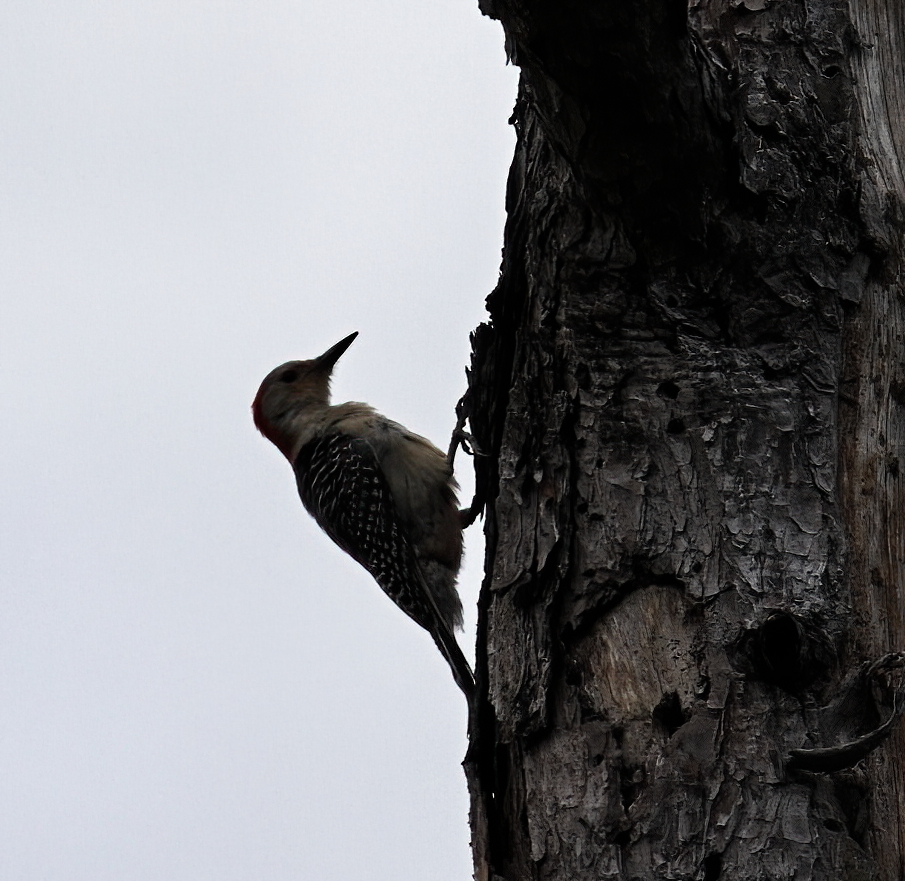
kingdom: Animalia
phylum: Chordata
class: Aves
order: Piciformes
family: Picidae
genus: Melanerpes
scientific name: Melanerpes carolinus
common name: Red-bellied woodpecker
